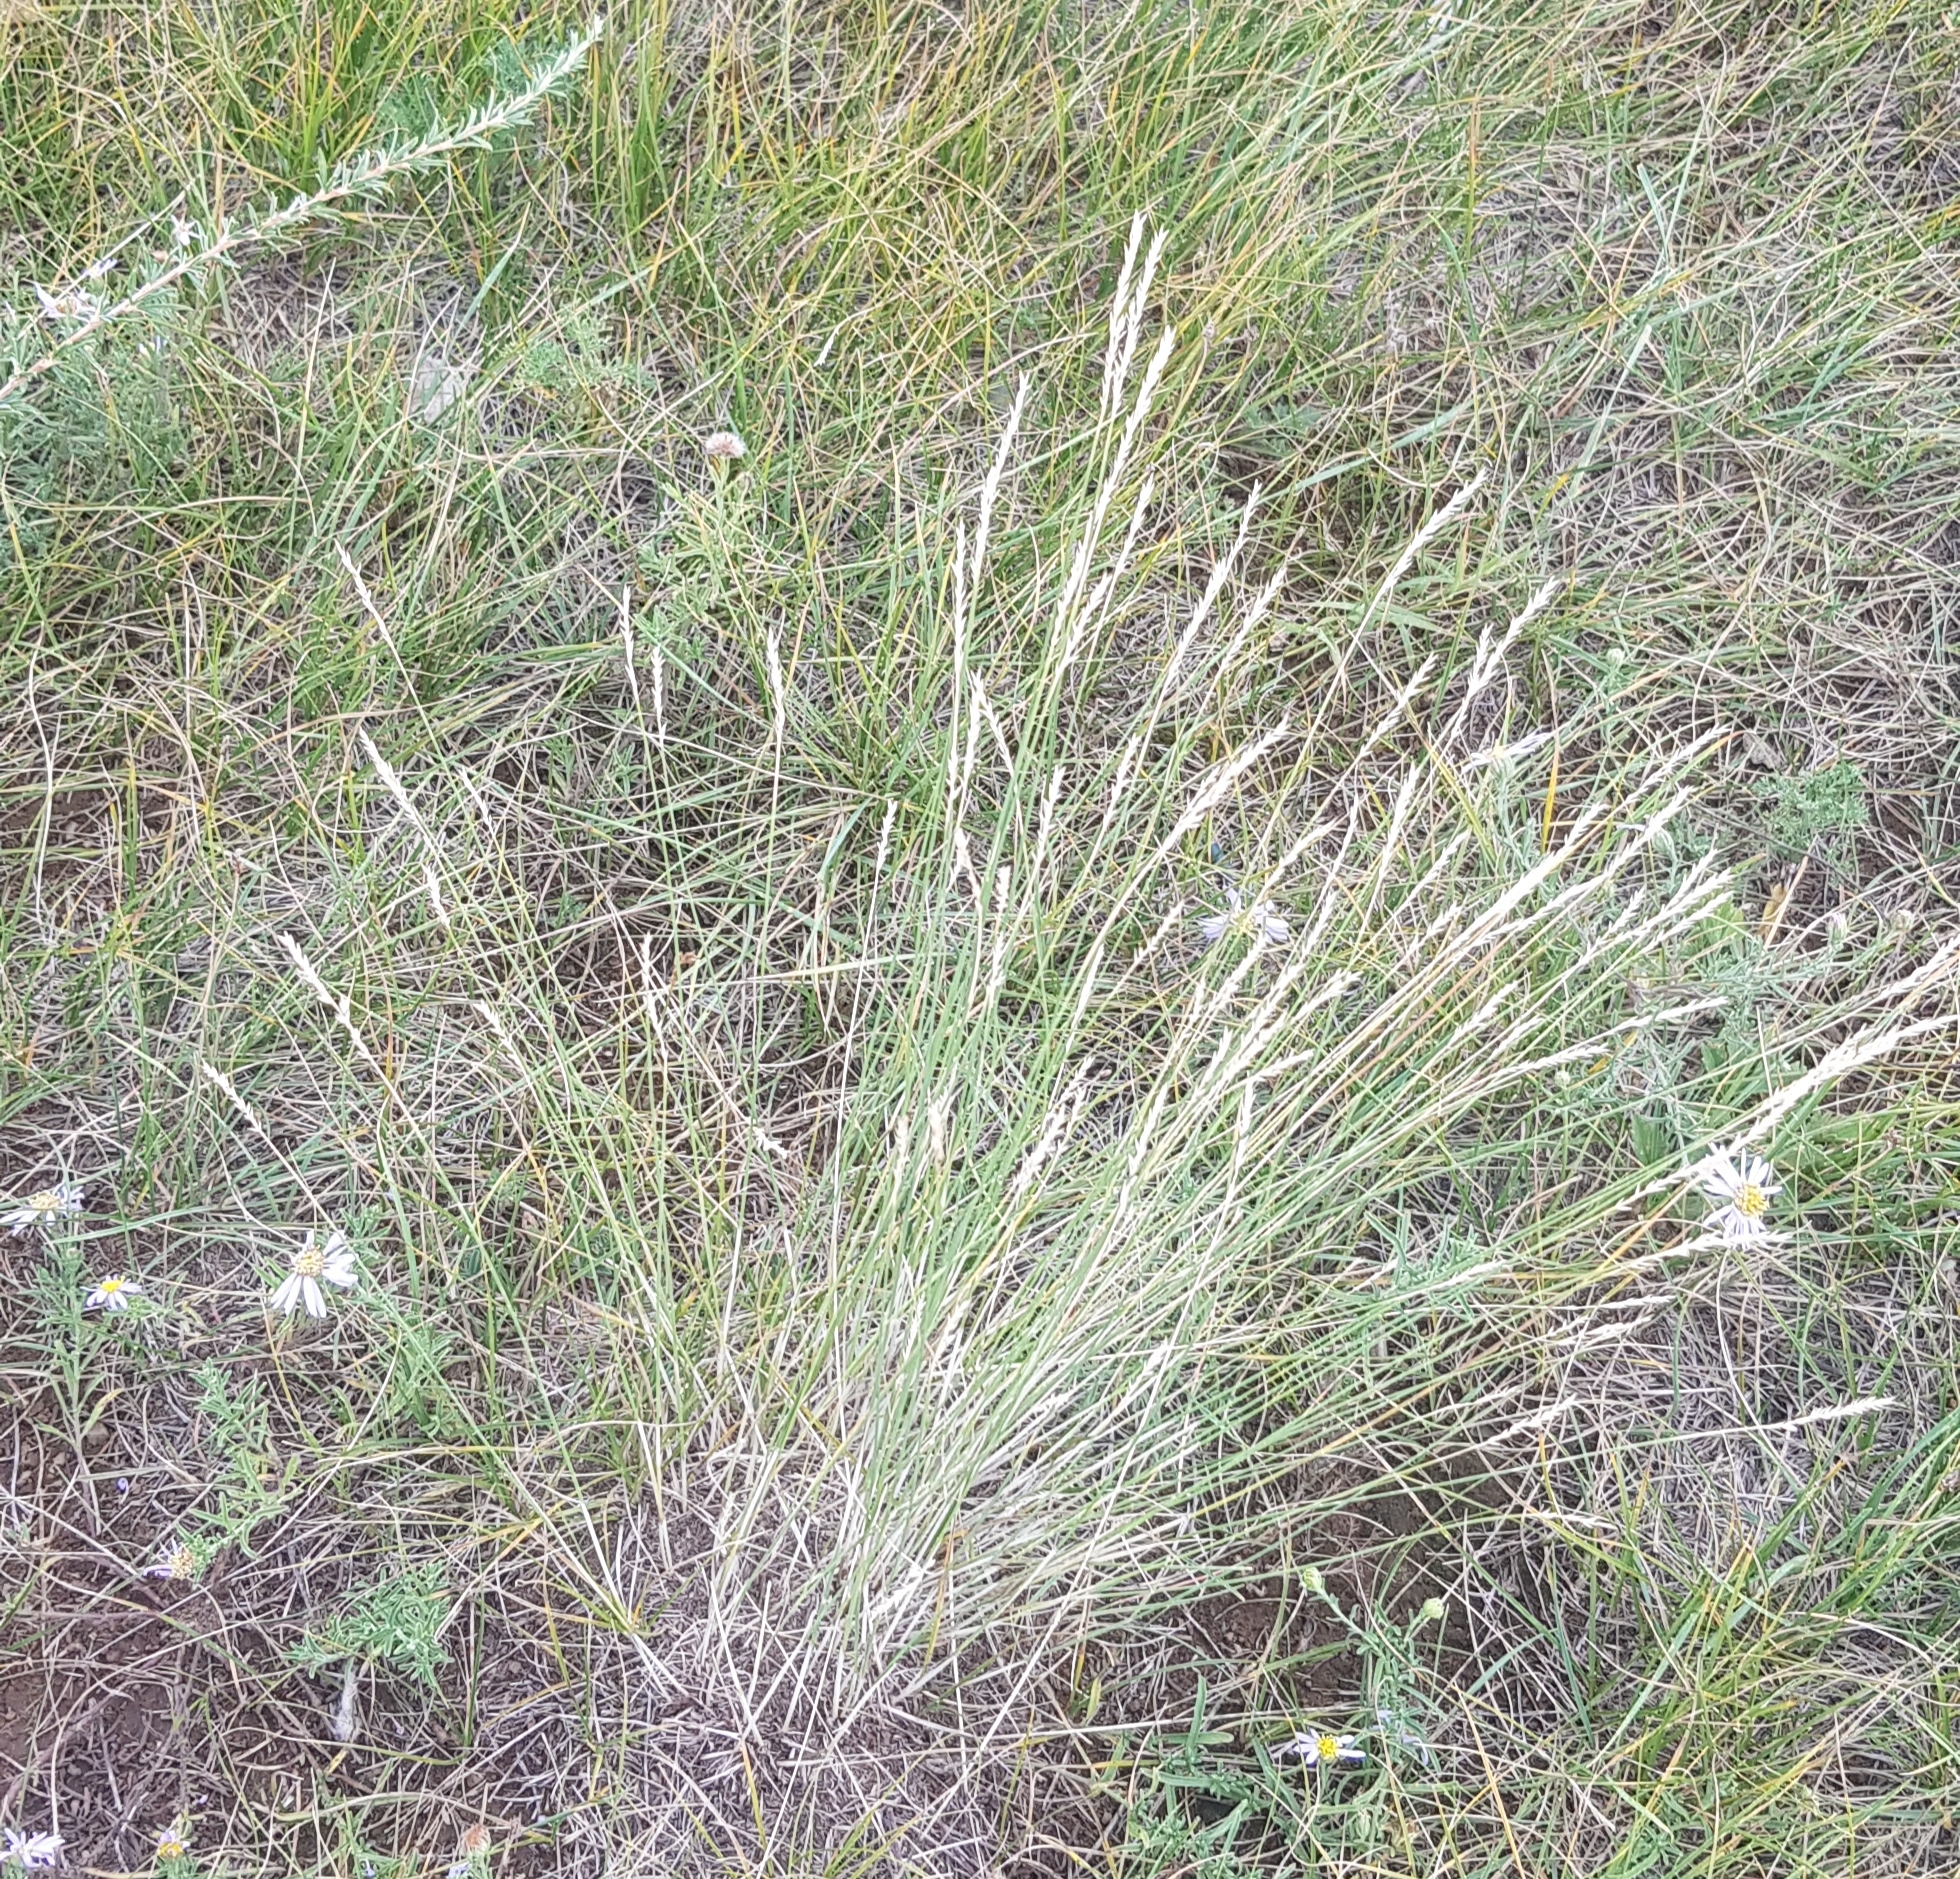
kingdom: Plantae
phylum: Tracheophyta
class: Liliopsida
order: Poales
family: Poaceae
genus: Festuca
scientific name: Festuca lenensis
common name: Lena river fescue
